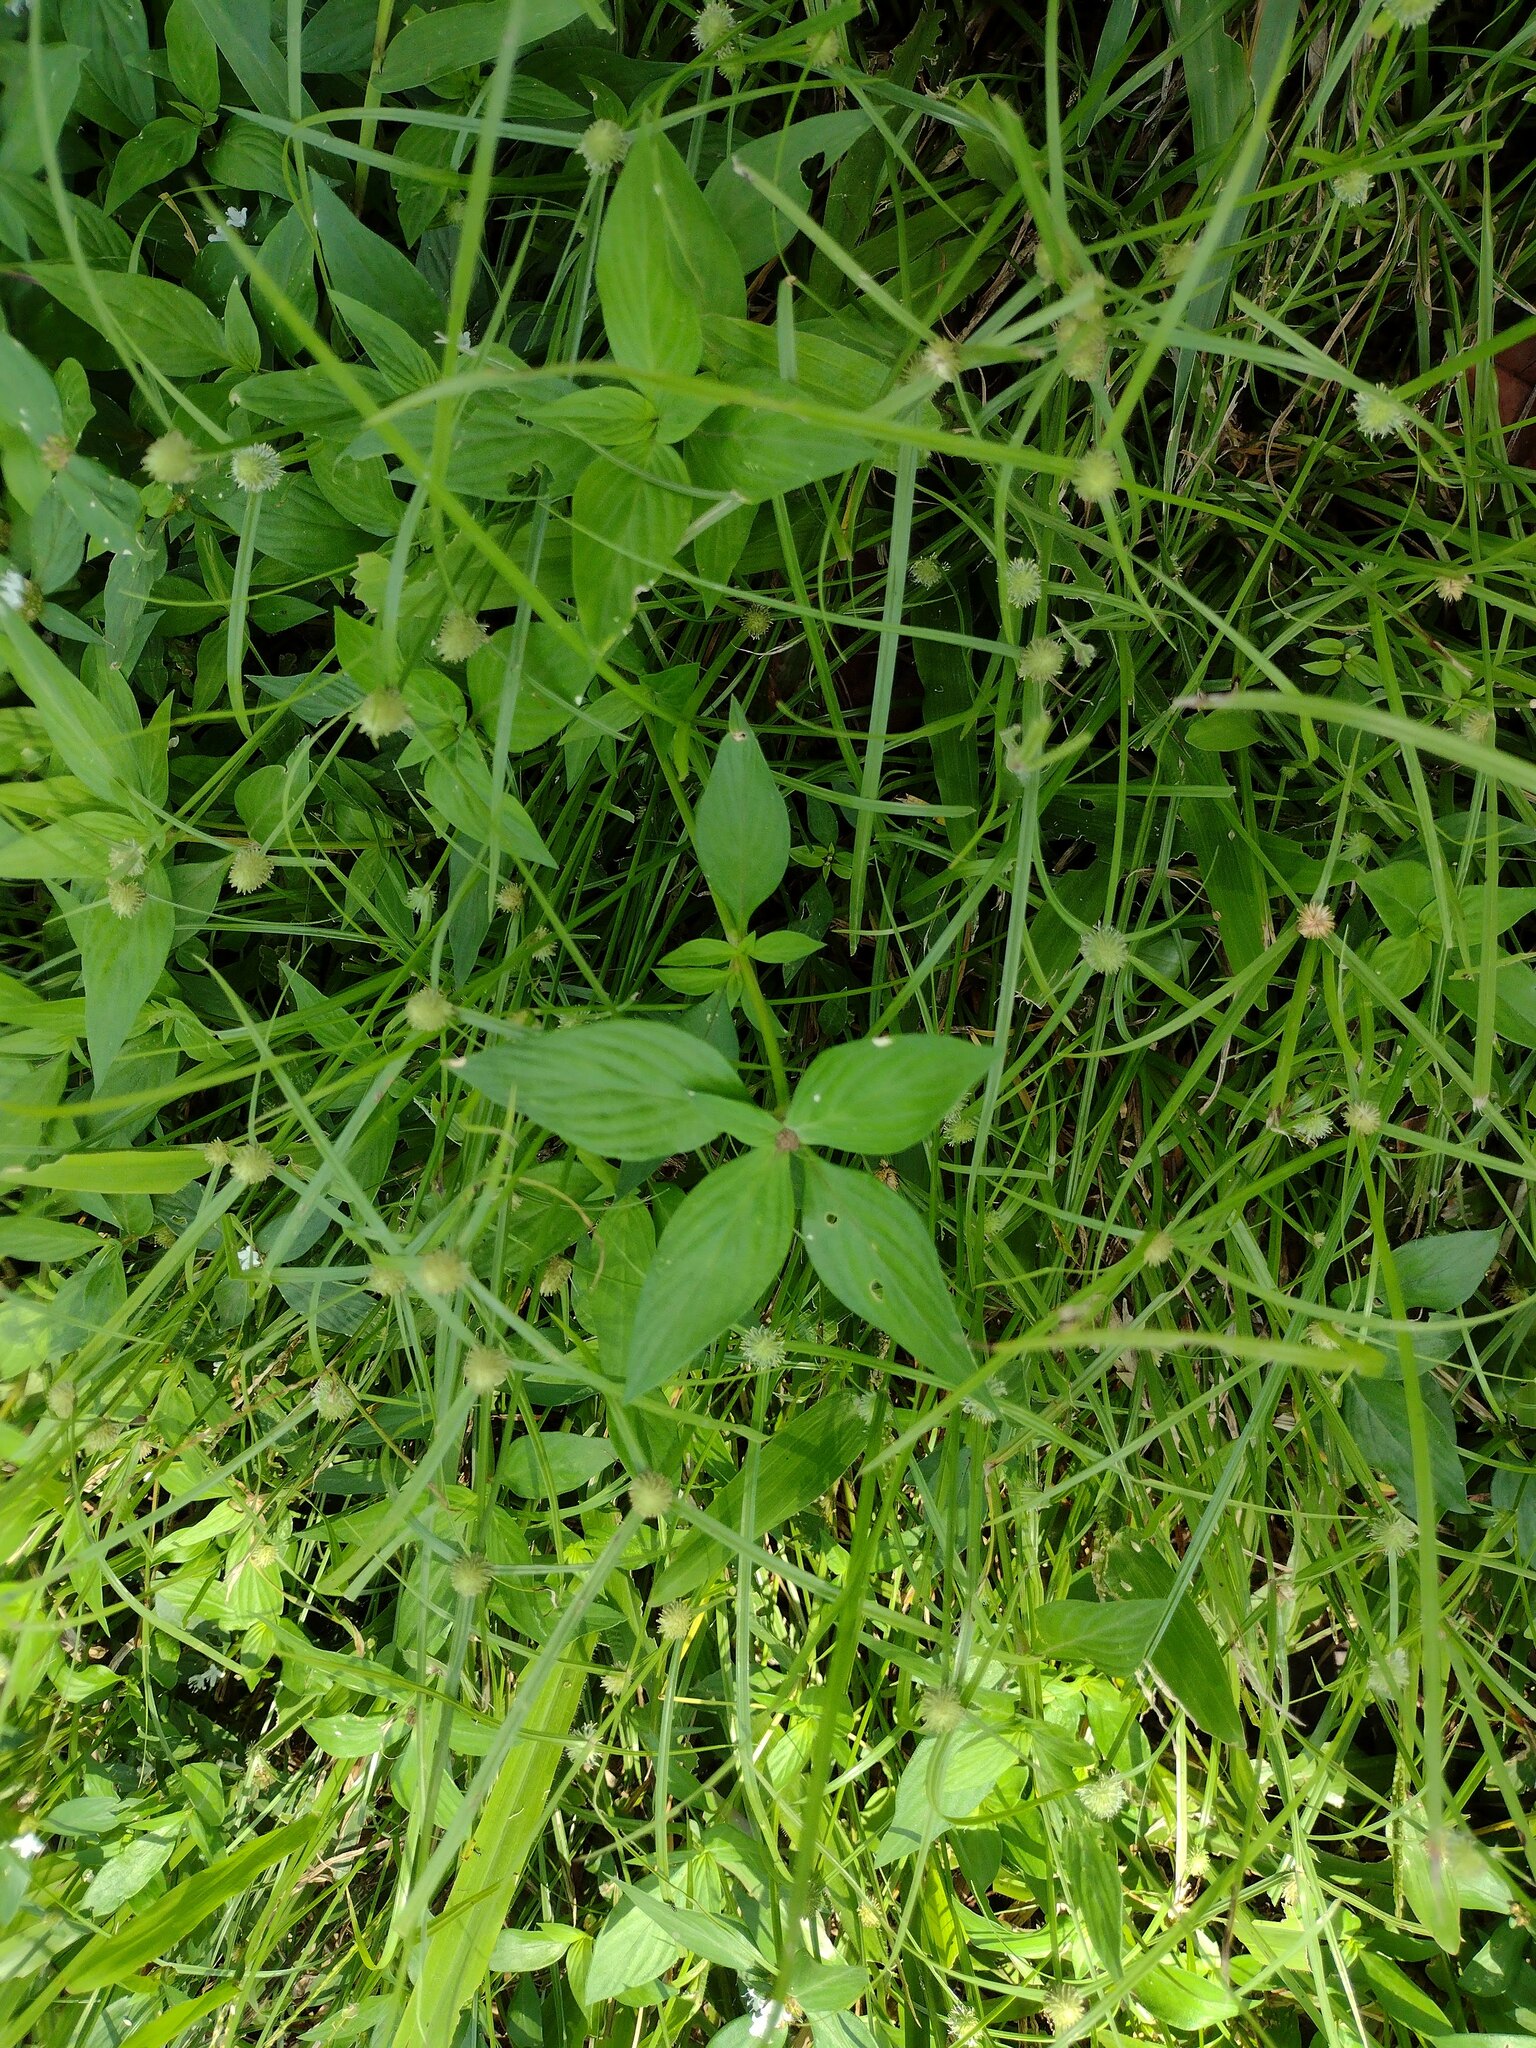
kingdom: Plantae
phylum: Tracheophyta
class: Liliopsida
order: Poales
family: Cyperaceae
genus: Cyperus
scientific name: Cyperus brevifolius
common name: Globe kyllinga
